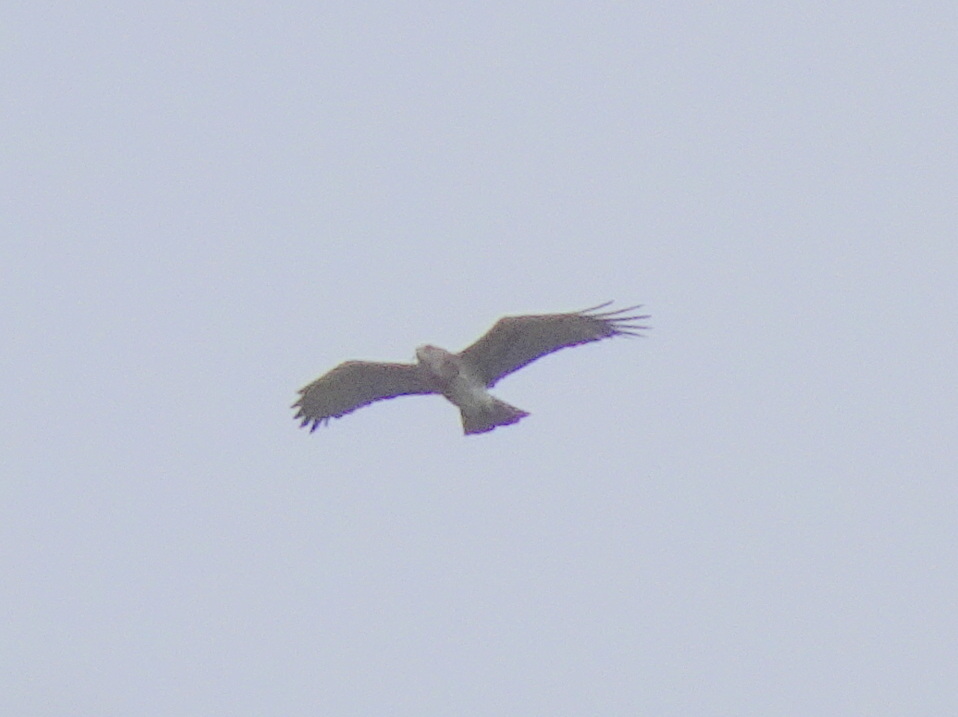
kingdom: Animalia
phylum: Chordata
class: Aves
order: Accipitriformes
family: Accipitridae
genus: Circaetus
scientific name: Circaetus gallicus
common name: Short-toed snake eagle
